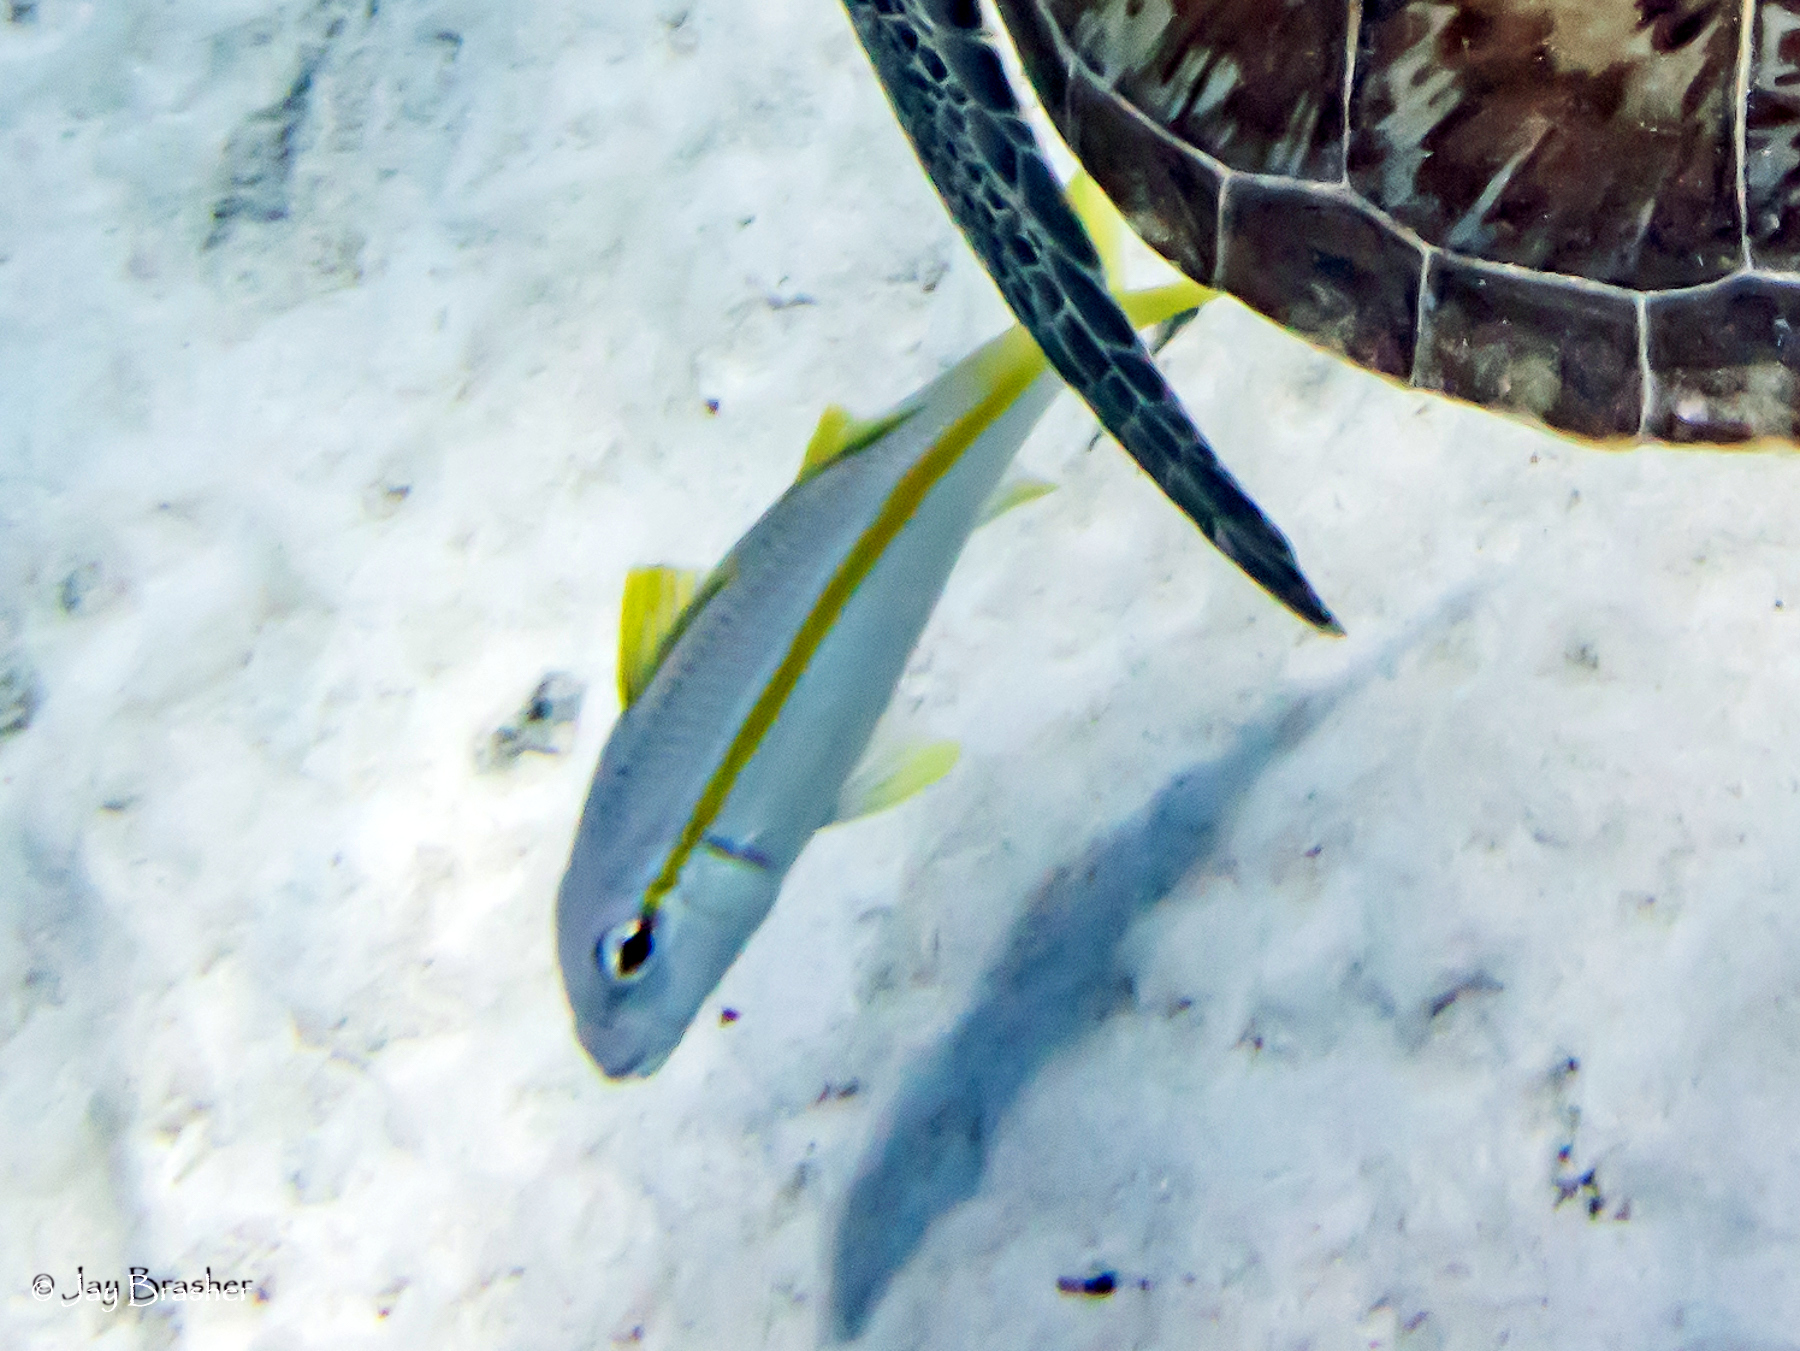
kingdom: Animalia
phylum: Chordata
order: Perciformes
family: Mullidae
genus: Mulloidichthys
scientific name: Mulloidichthys martinicus
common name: Yellow goatfish
